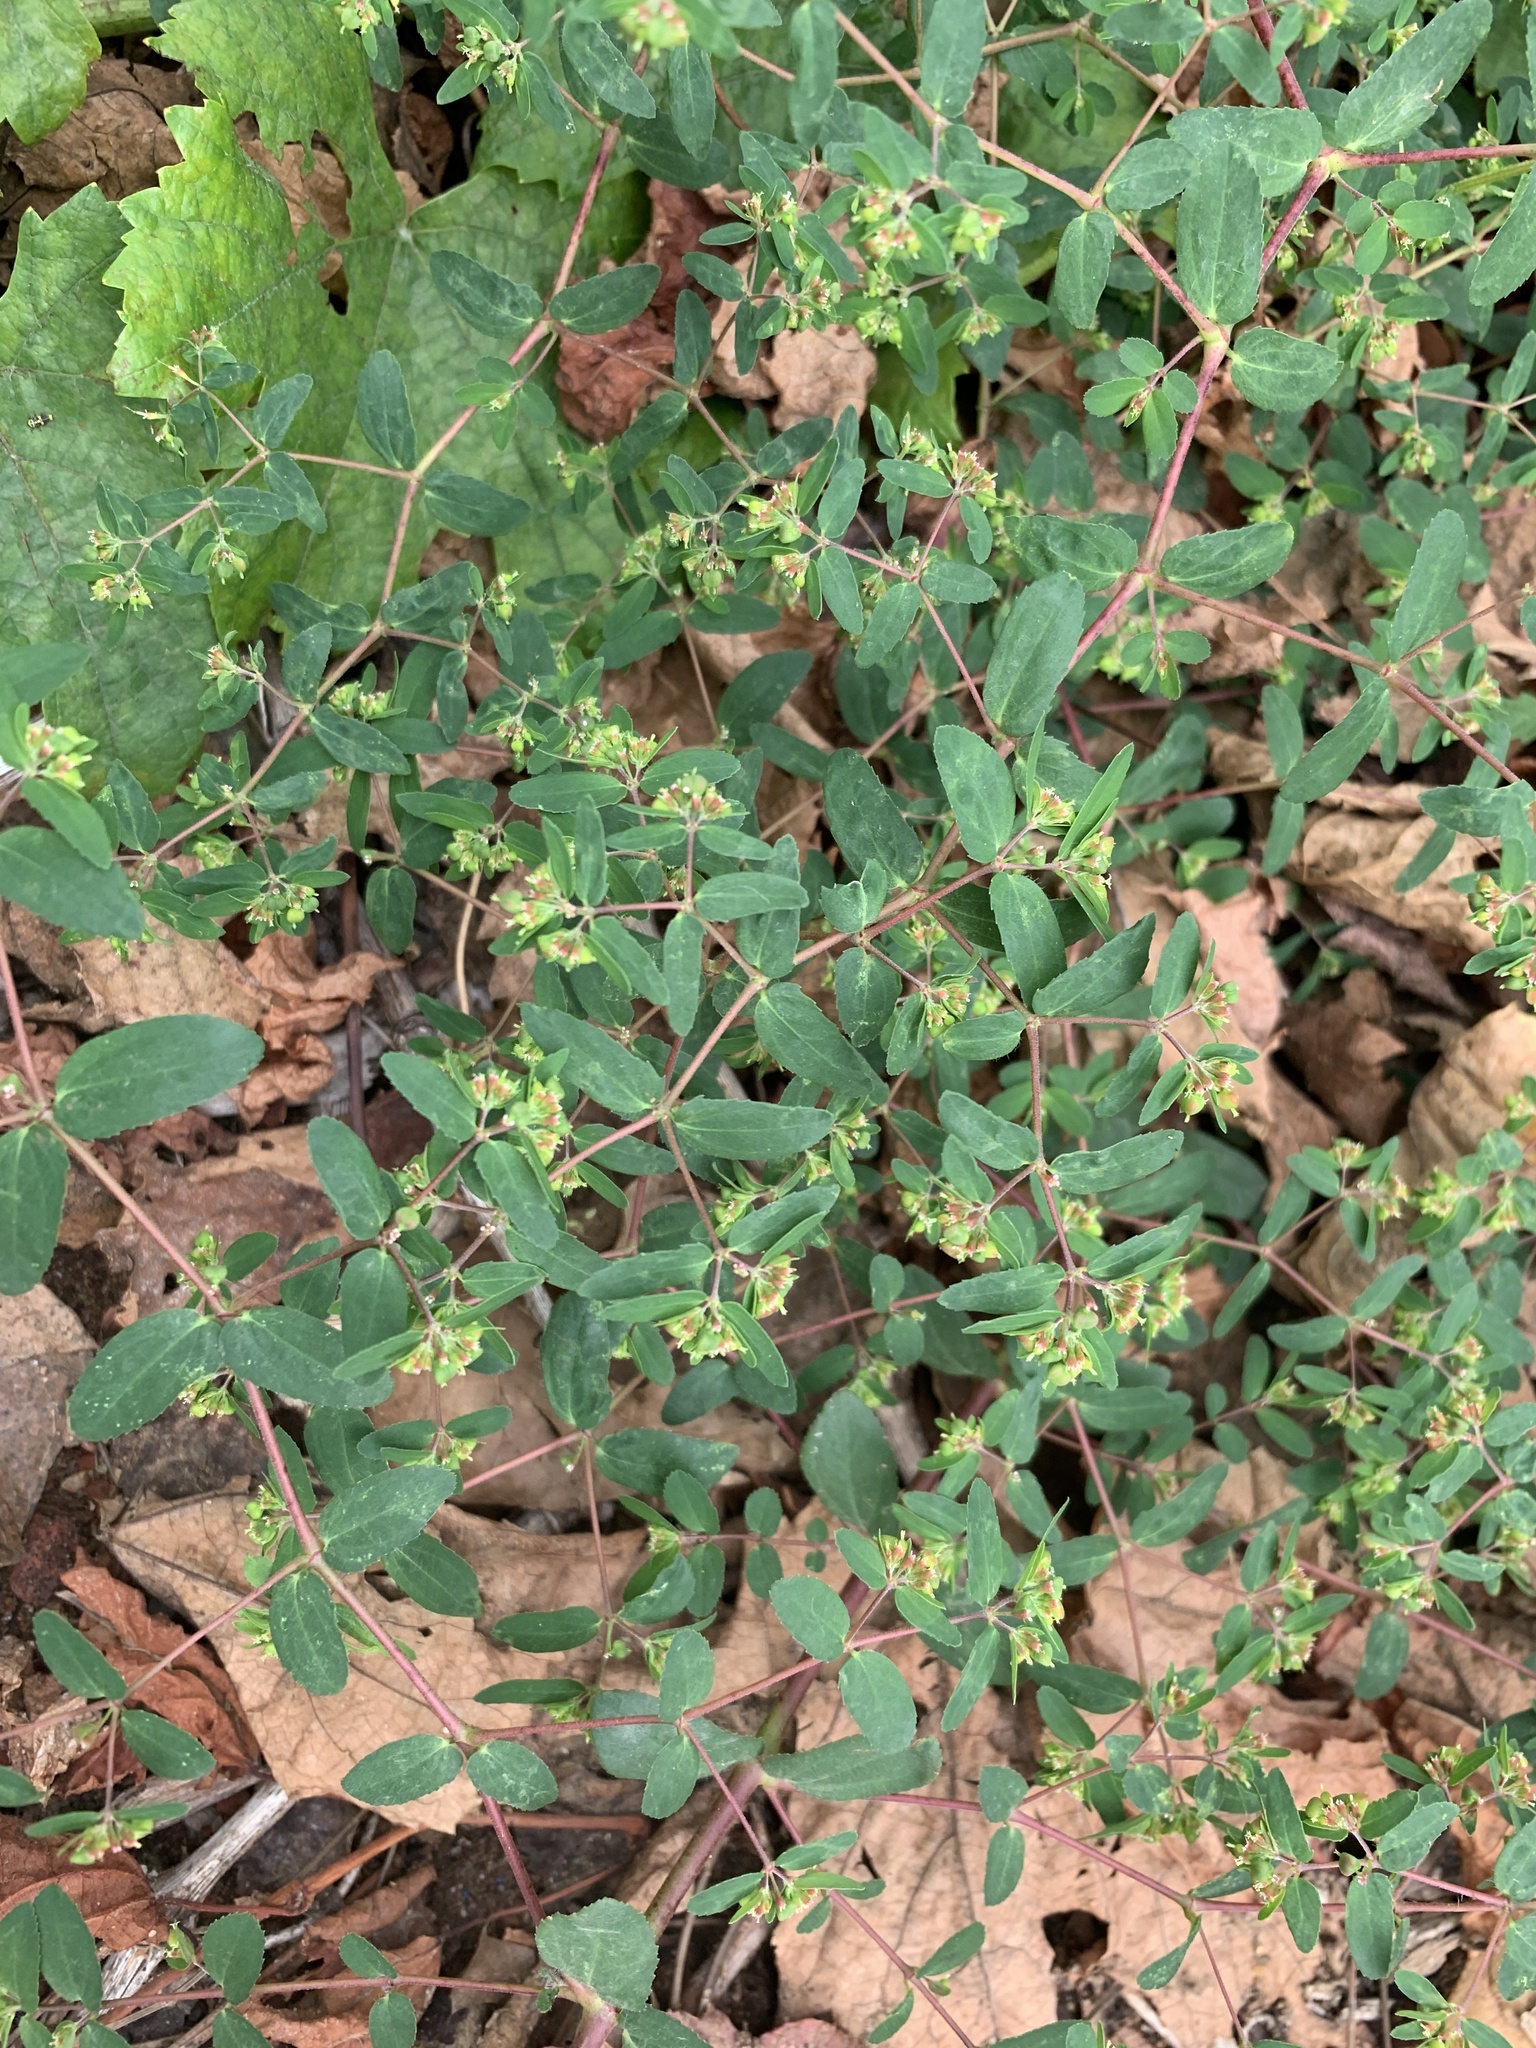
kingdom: Plantae
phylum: Tracheophyta
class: Magnoliopsida
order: Malpighiales
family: Euphorbiaceae
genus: Euphorbia
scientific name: Euphorbia nutans
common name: Eyebane
